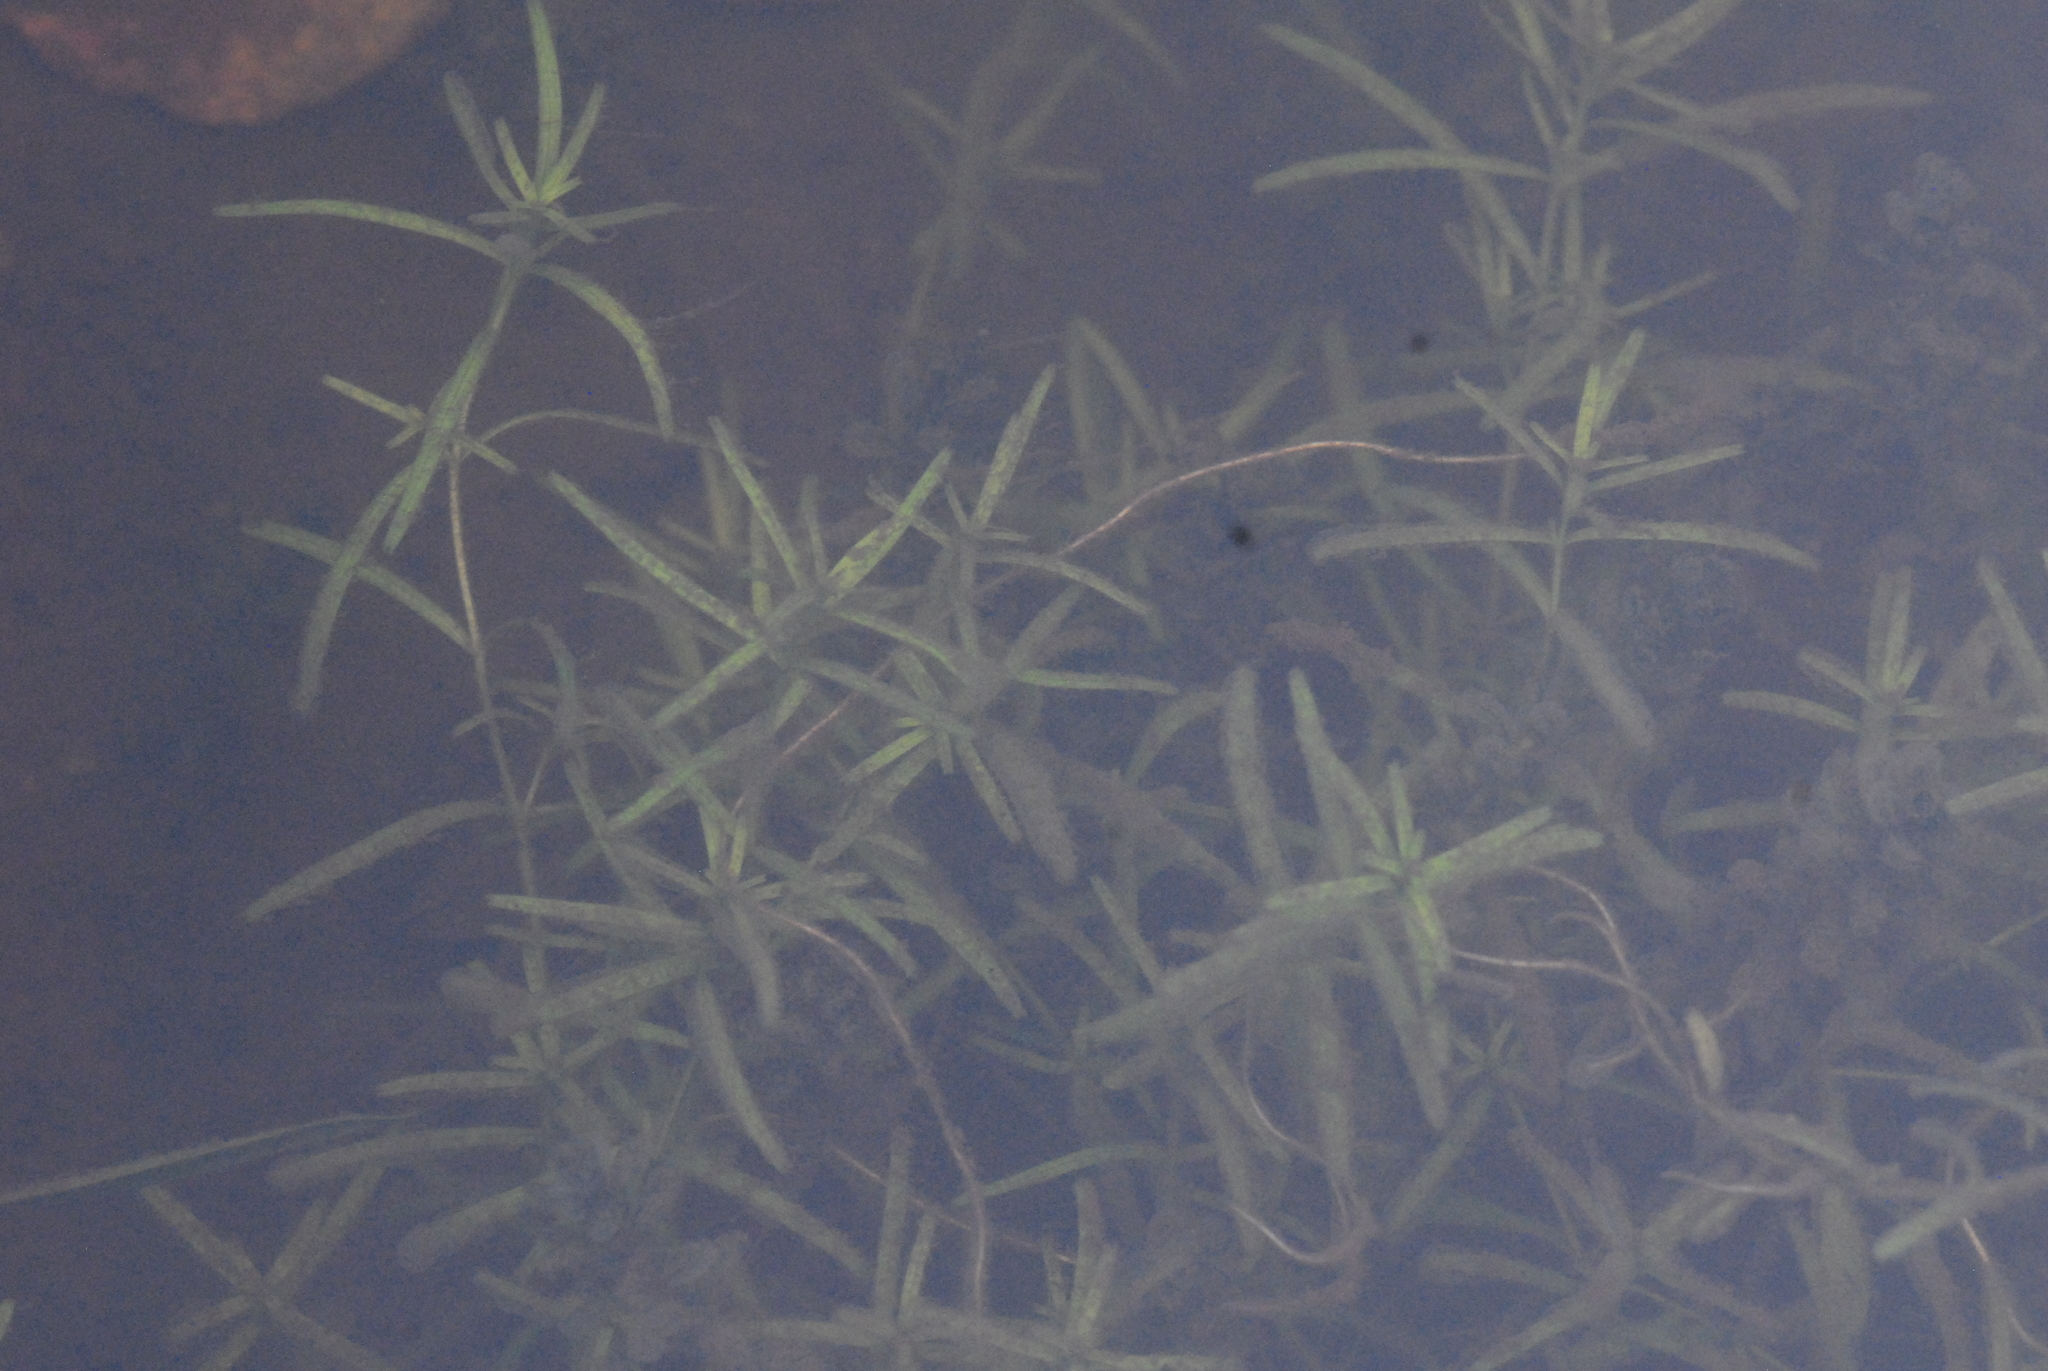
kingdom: Plantae
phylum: Tracheophyta
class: Magnoliopsida
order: Lamiales
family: Plantaginaceae
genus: Callitriche
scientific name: Callitriche palustris
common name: Spring water-starwort
